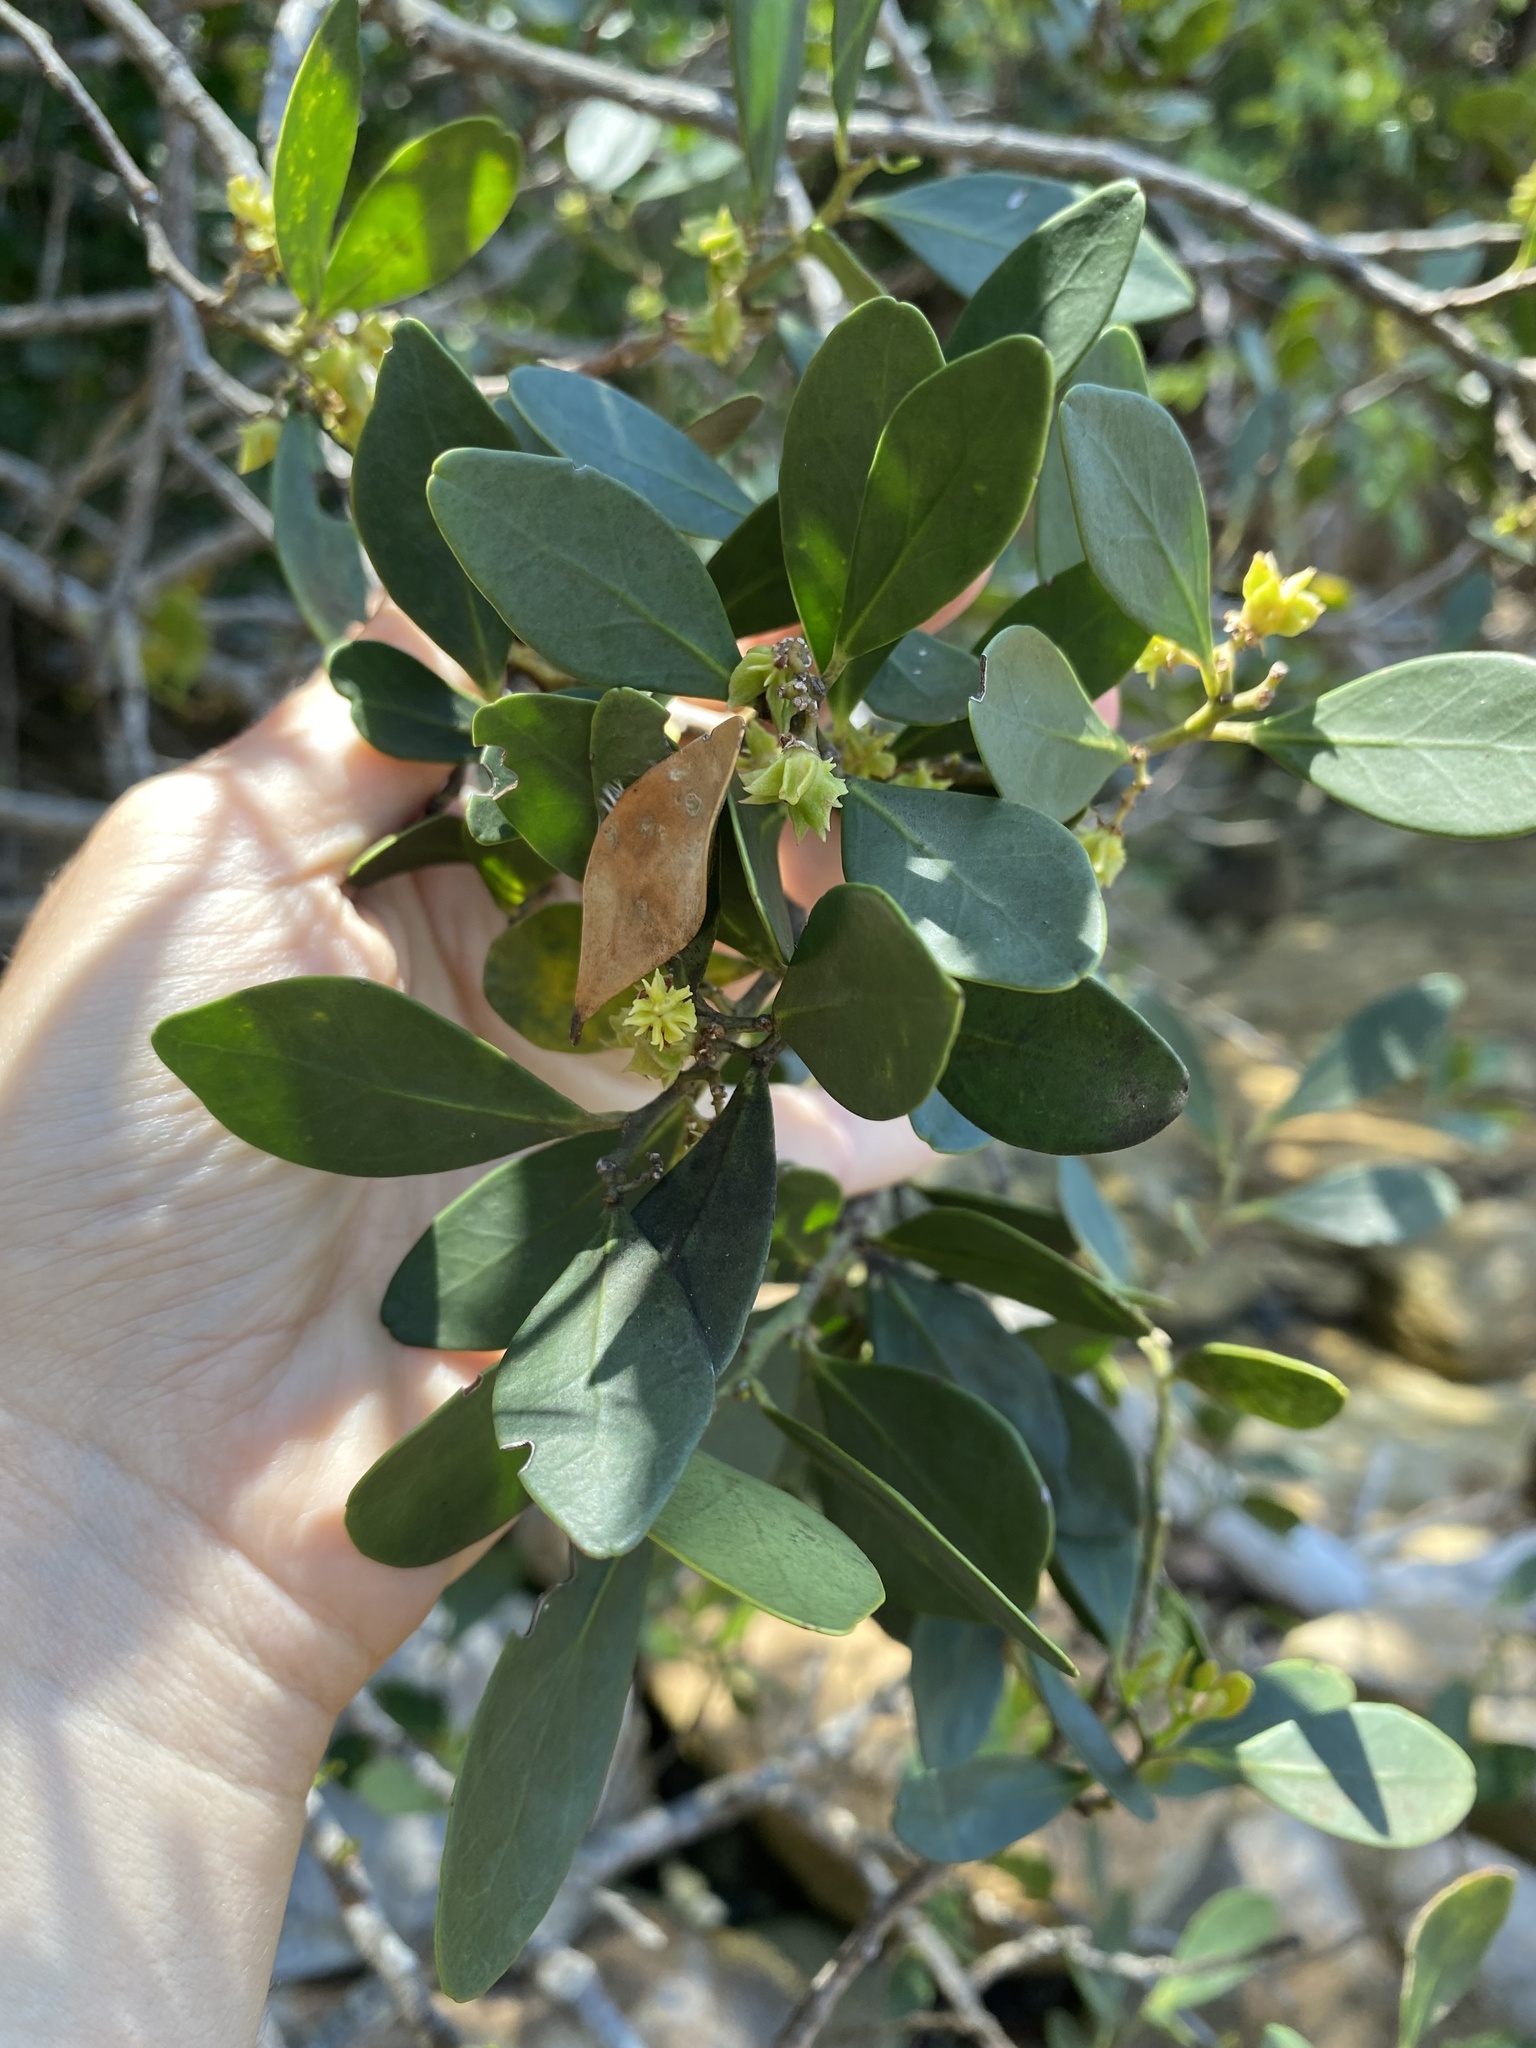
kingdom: Plantae
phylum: Tracheophyta
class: Magnoliopsida
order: Celastrales
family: Celastraceae
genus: Pterocelastrus
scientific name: Pterocelastrus tricuspidatus
